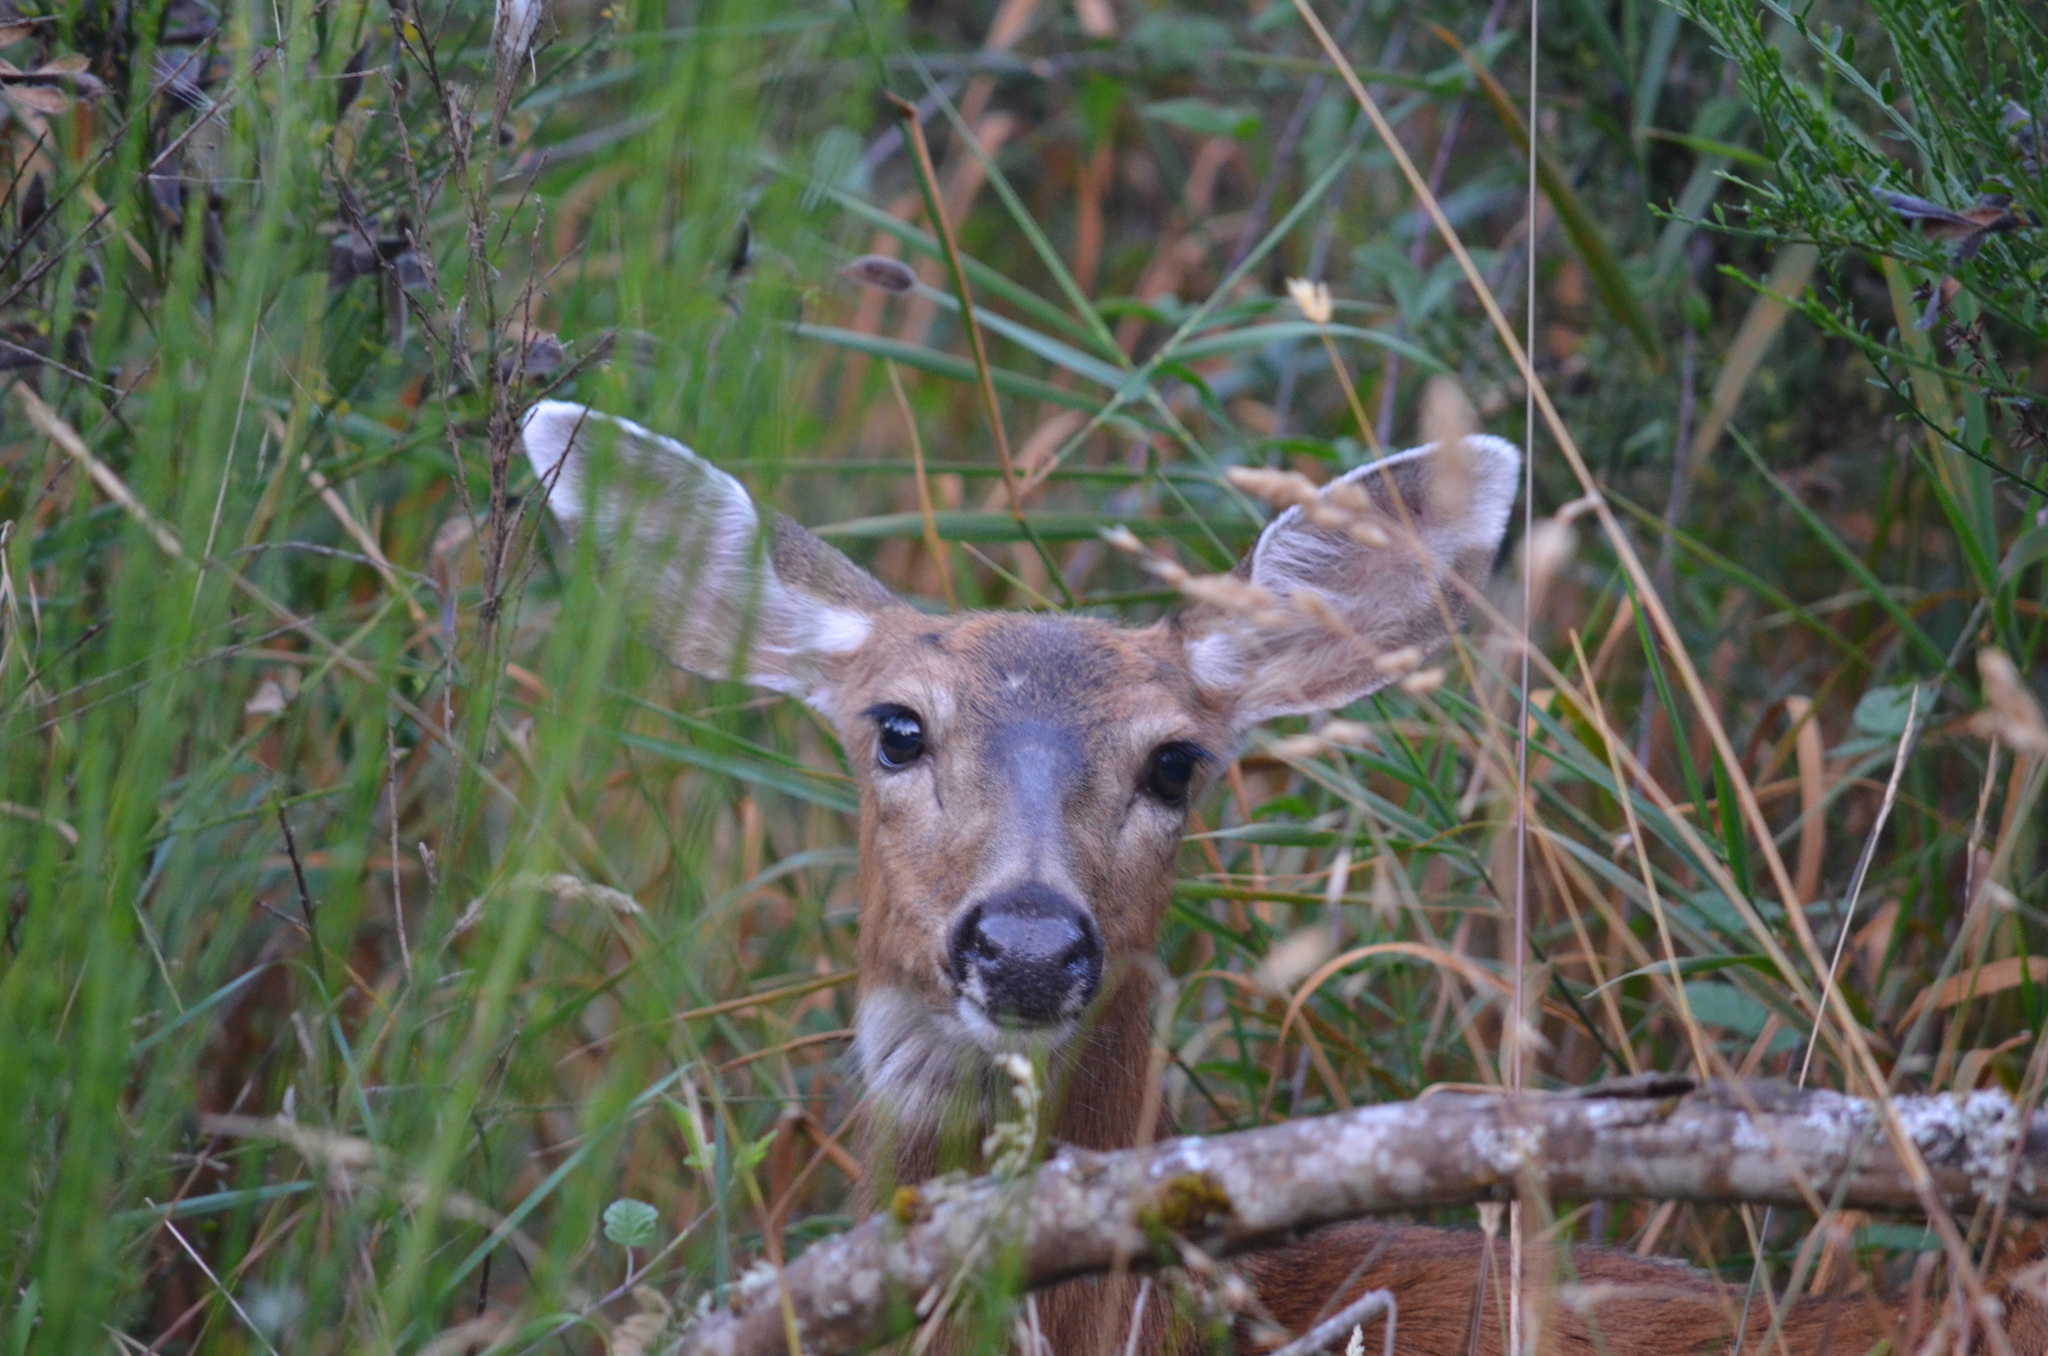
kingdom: Animalia
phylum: Chordata
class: Mammalia
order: Artiodactyla
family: Cervidae
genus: Odocoileus
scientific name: Odocoileus hemionus
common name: Mule deer
